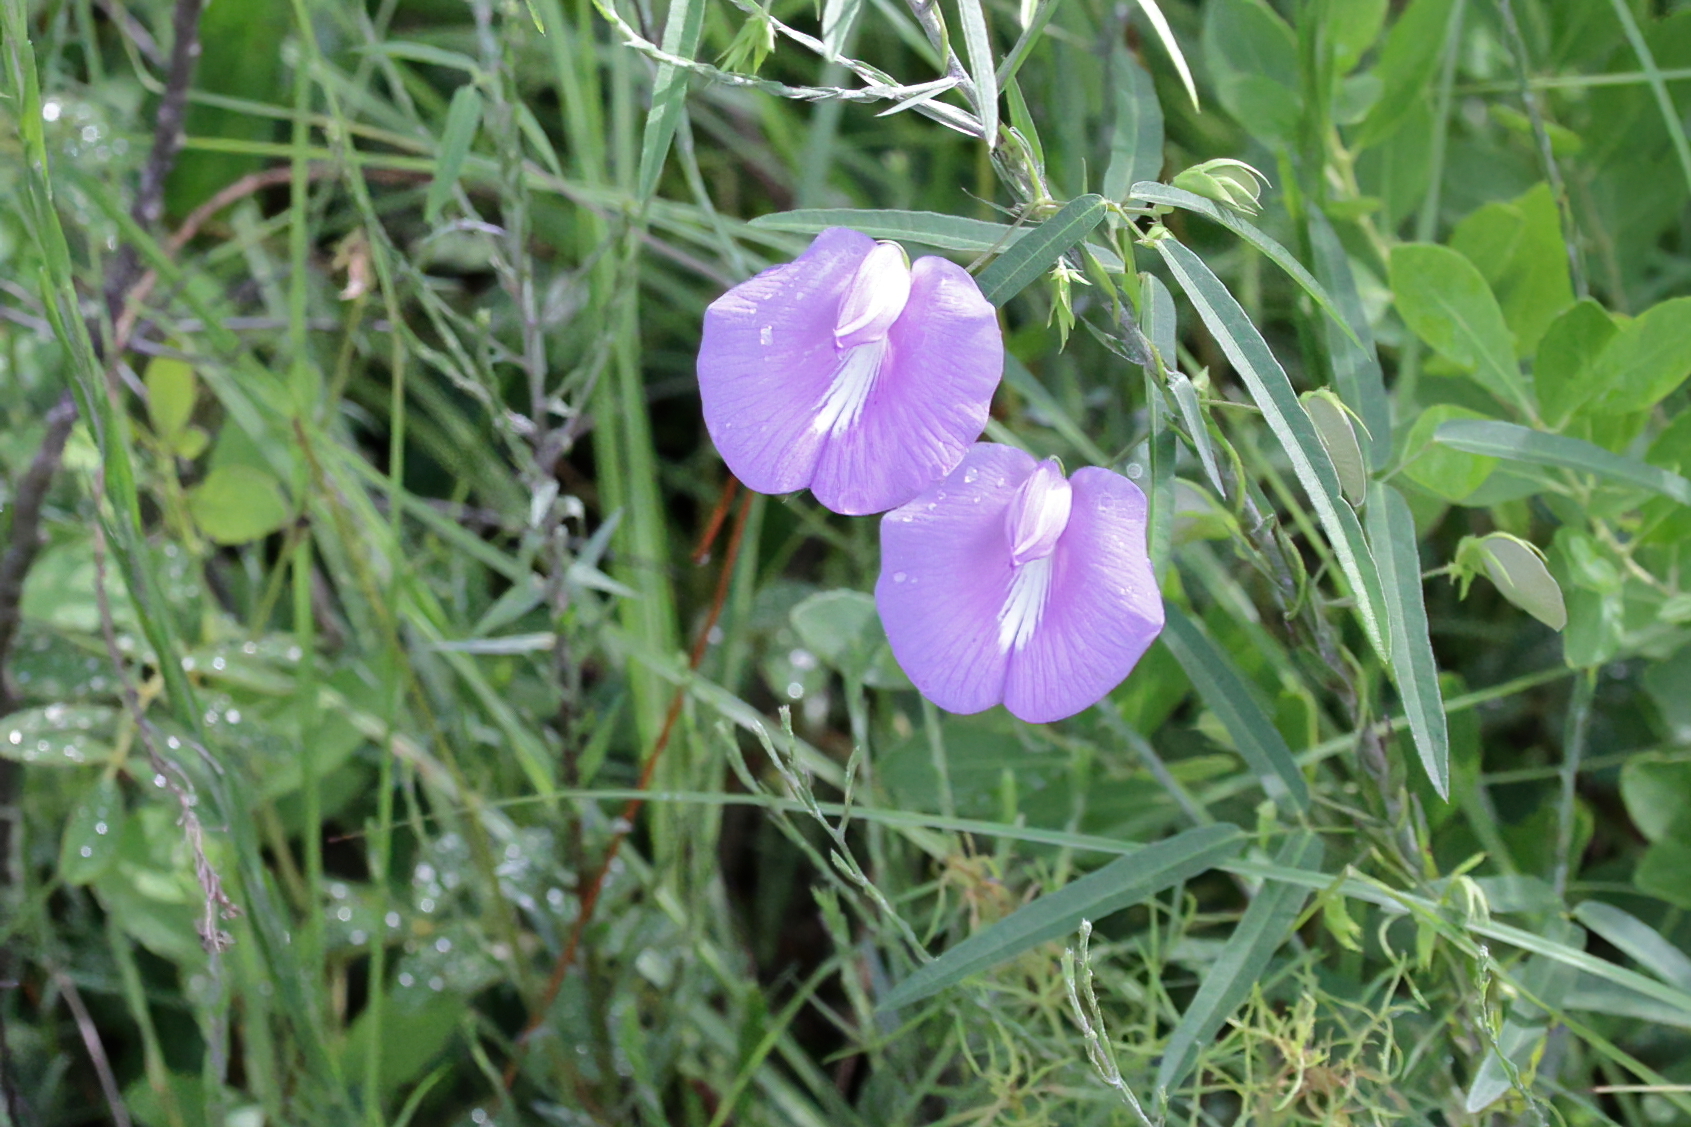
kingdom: Plantae
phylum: Tracheophyta
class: Magnoliopsida
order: Fabales
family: Fabaceae
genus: Centrosema
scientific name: Centrosema virginianum
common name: Butterfly-pea
